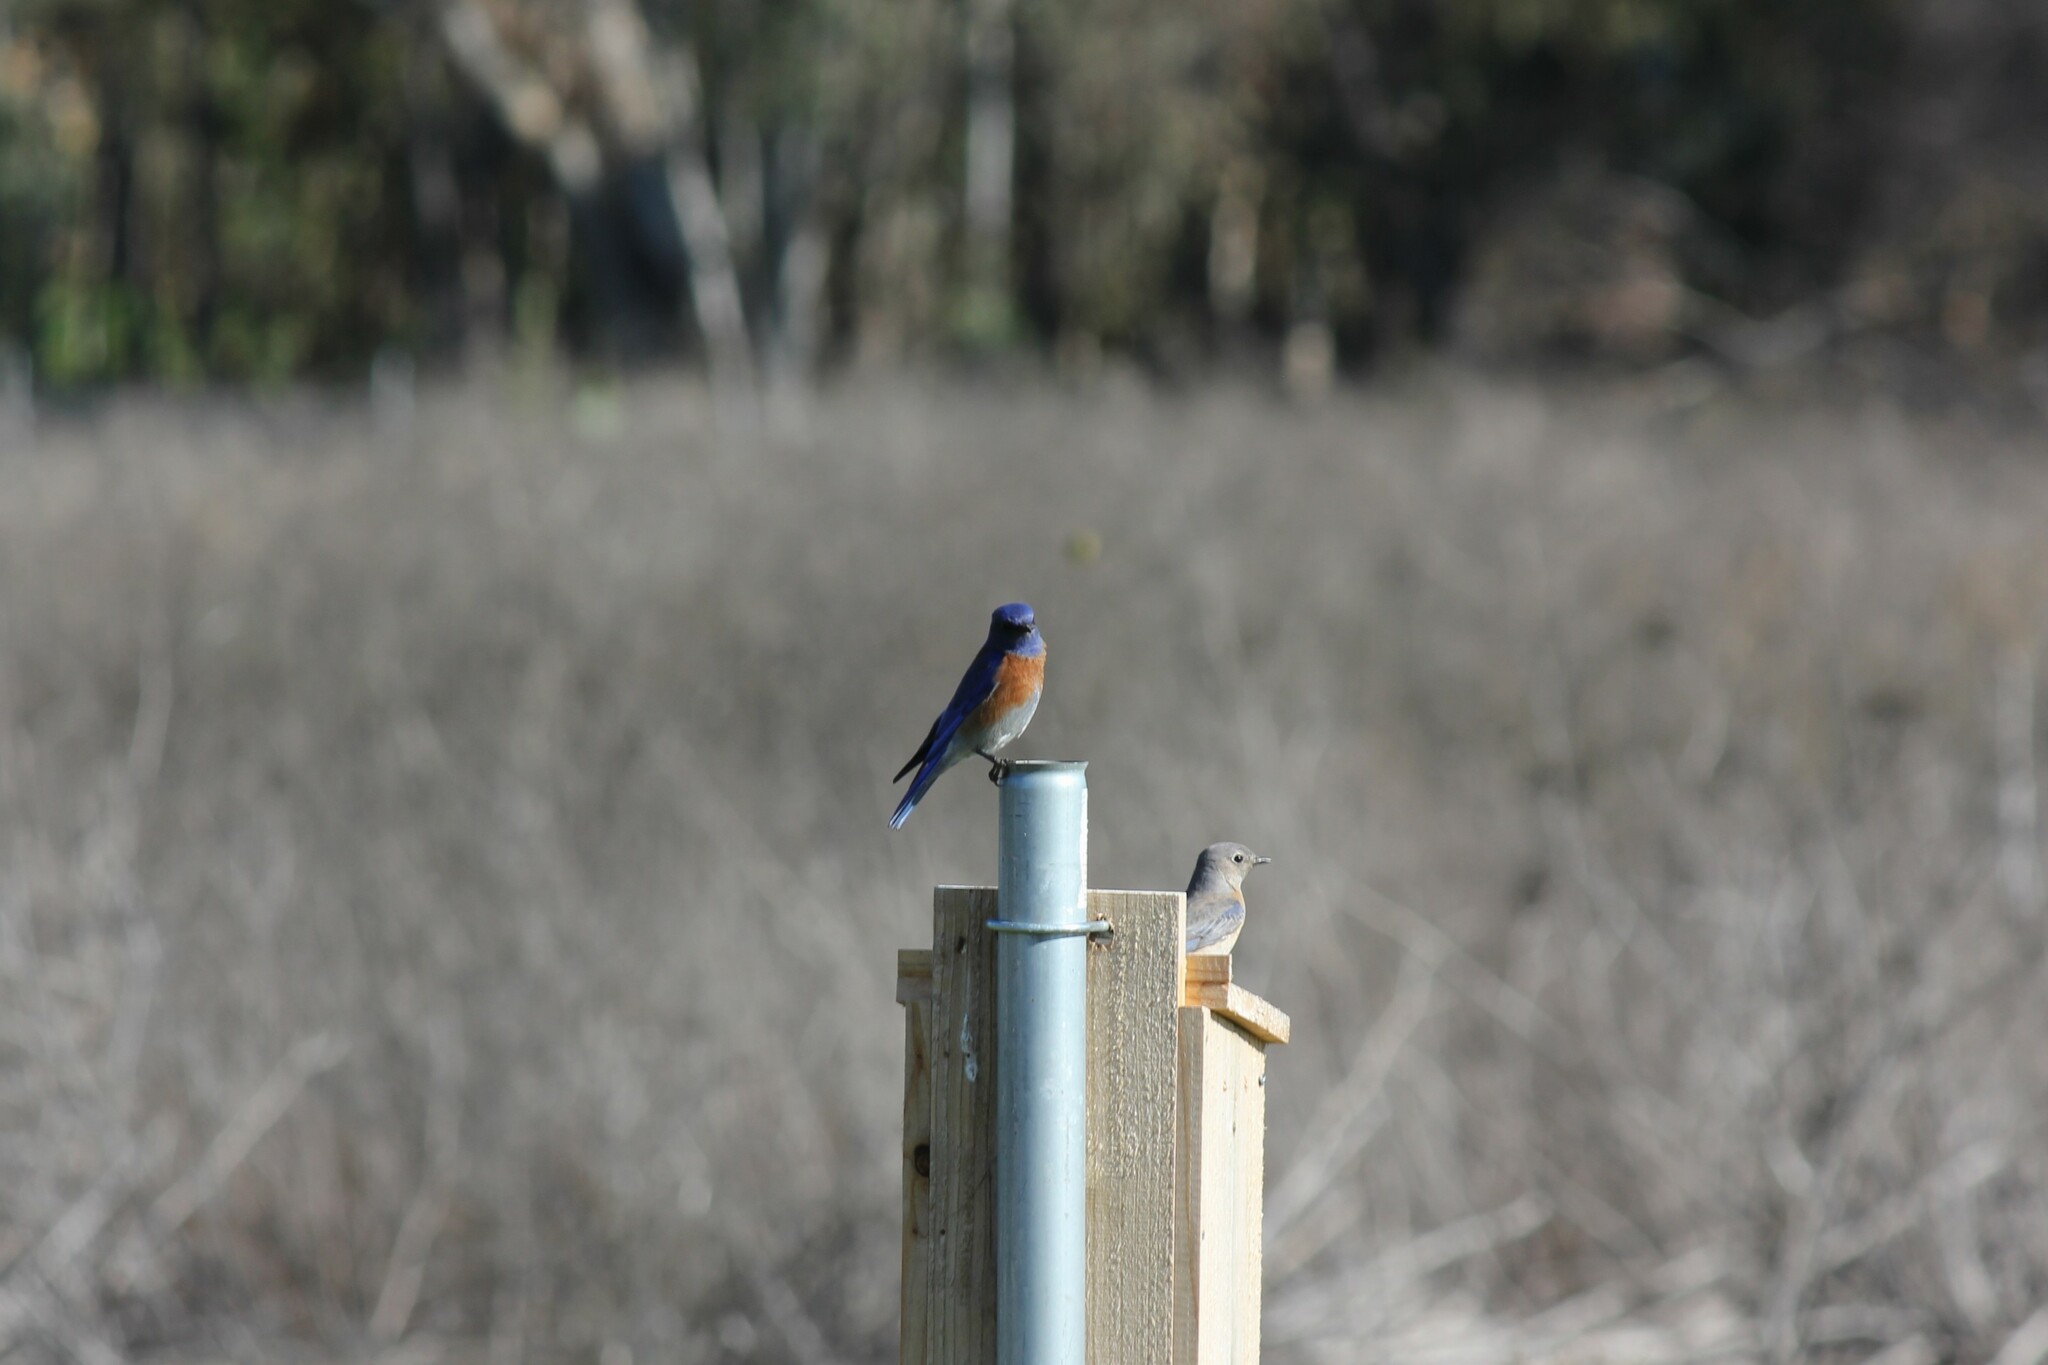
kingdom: Animalia
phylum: Chordata
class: Aves
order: Passeriformes
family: Turdidae
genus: Sialia
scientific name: Sialia mexicana
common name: Western bluebird
